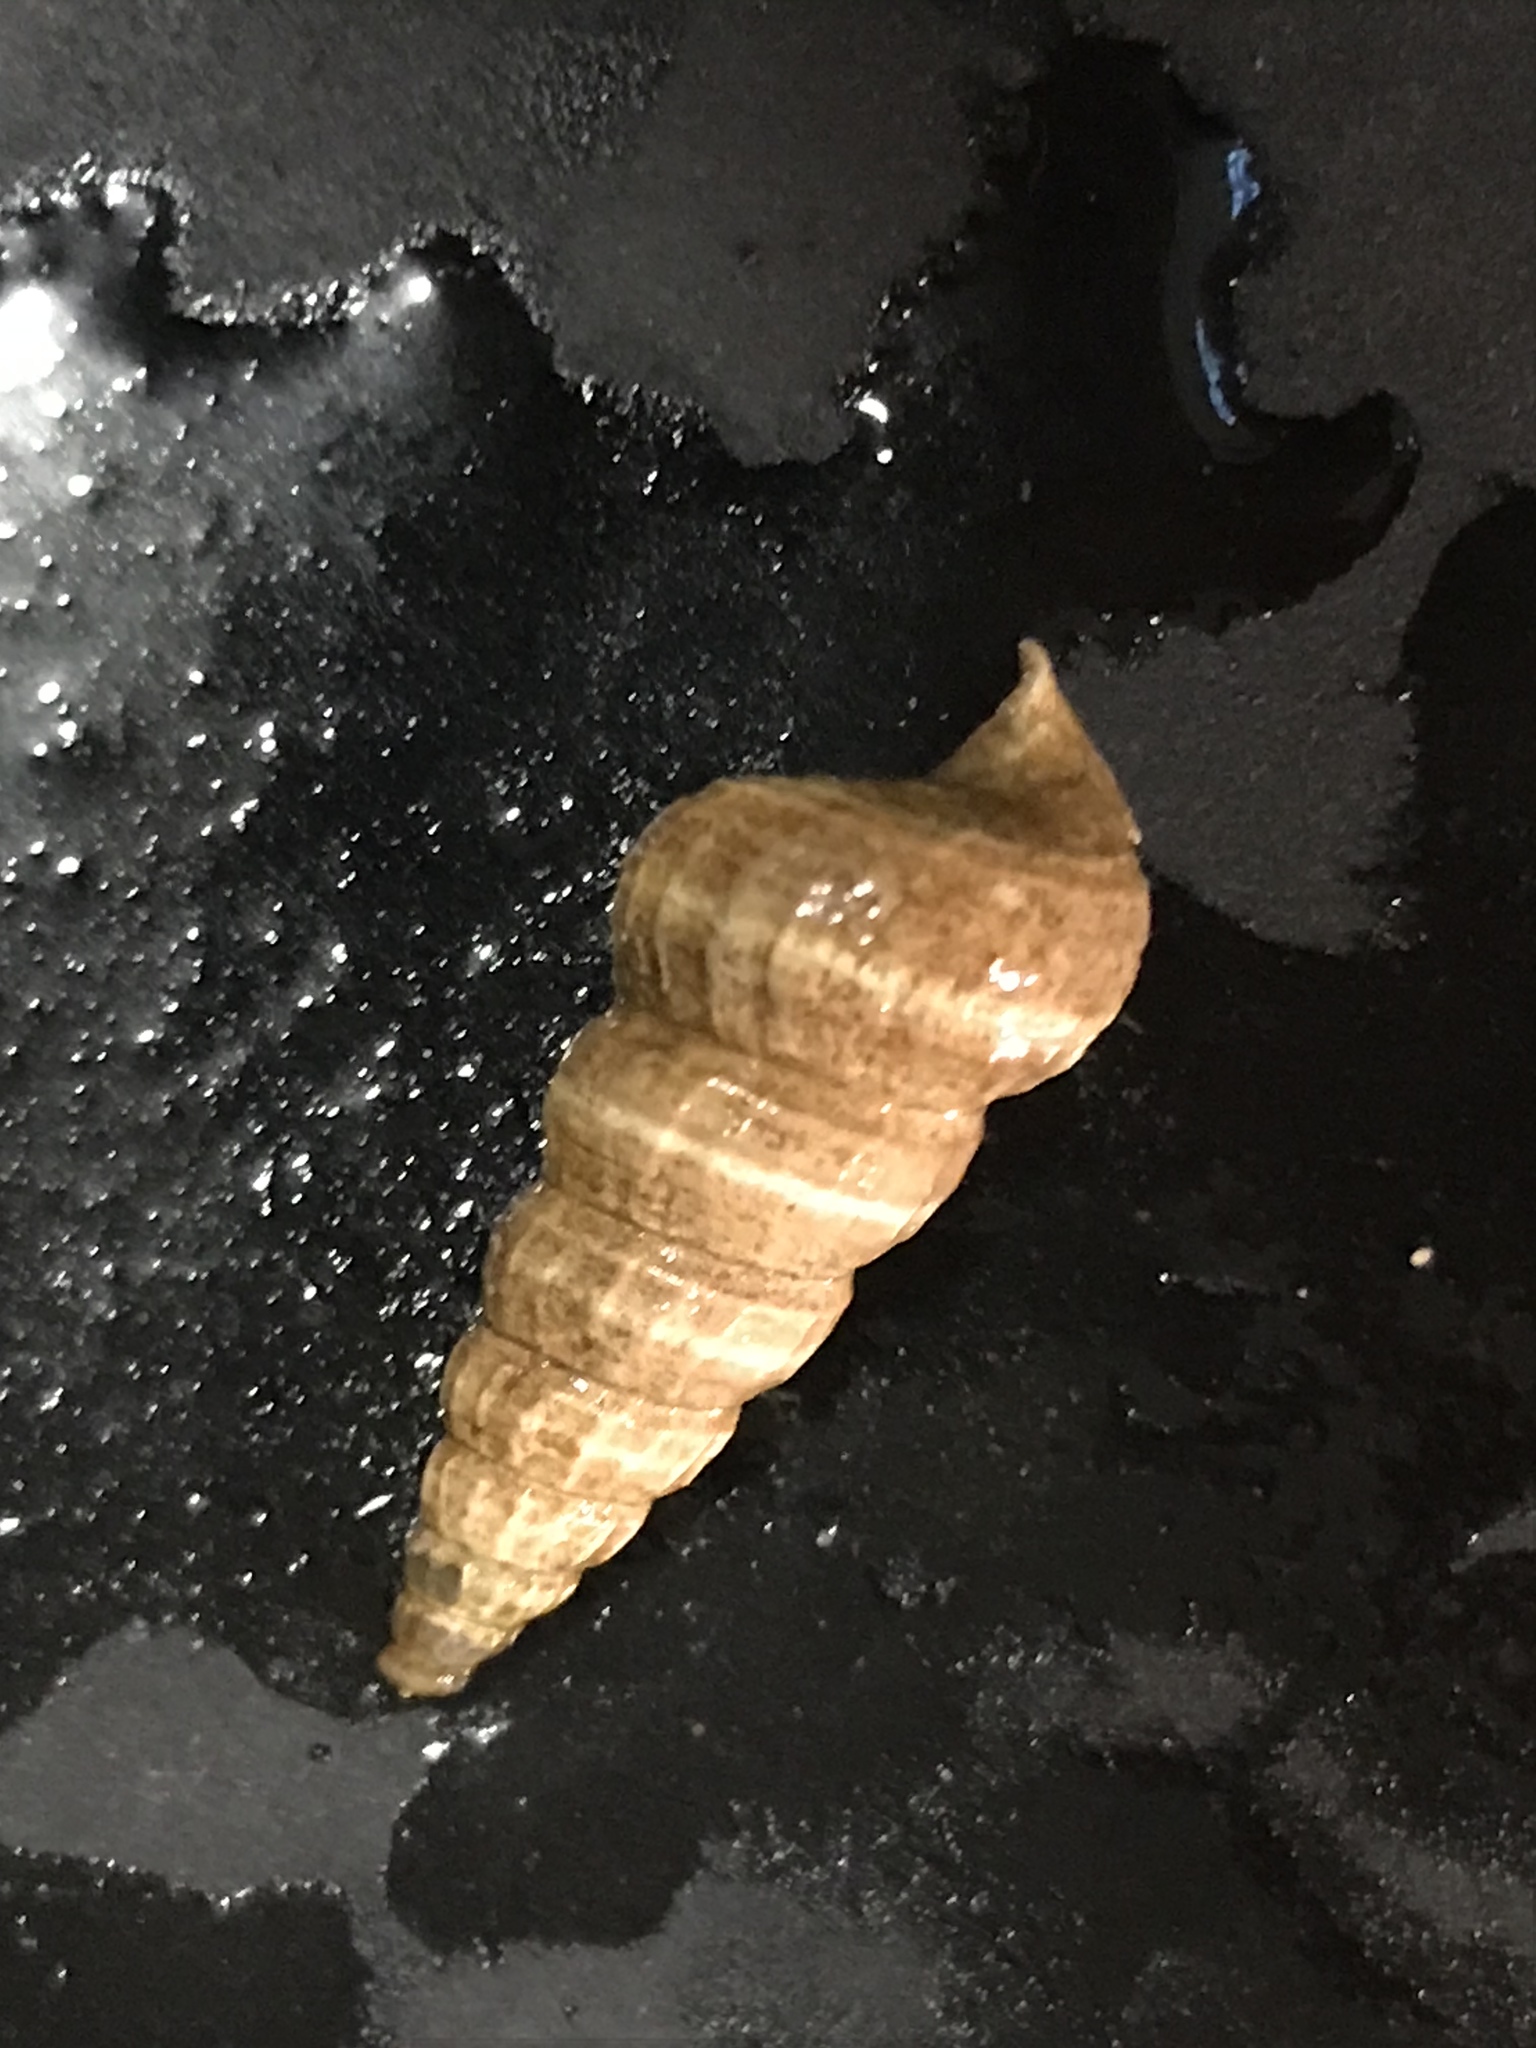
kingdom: Animalia
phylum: Mollusca
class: Gastropoda
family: Potamididae
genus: Cerithideopsis
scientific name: Cerithideopsis californica
